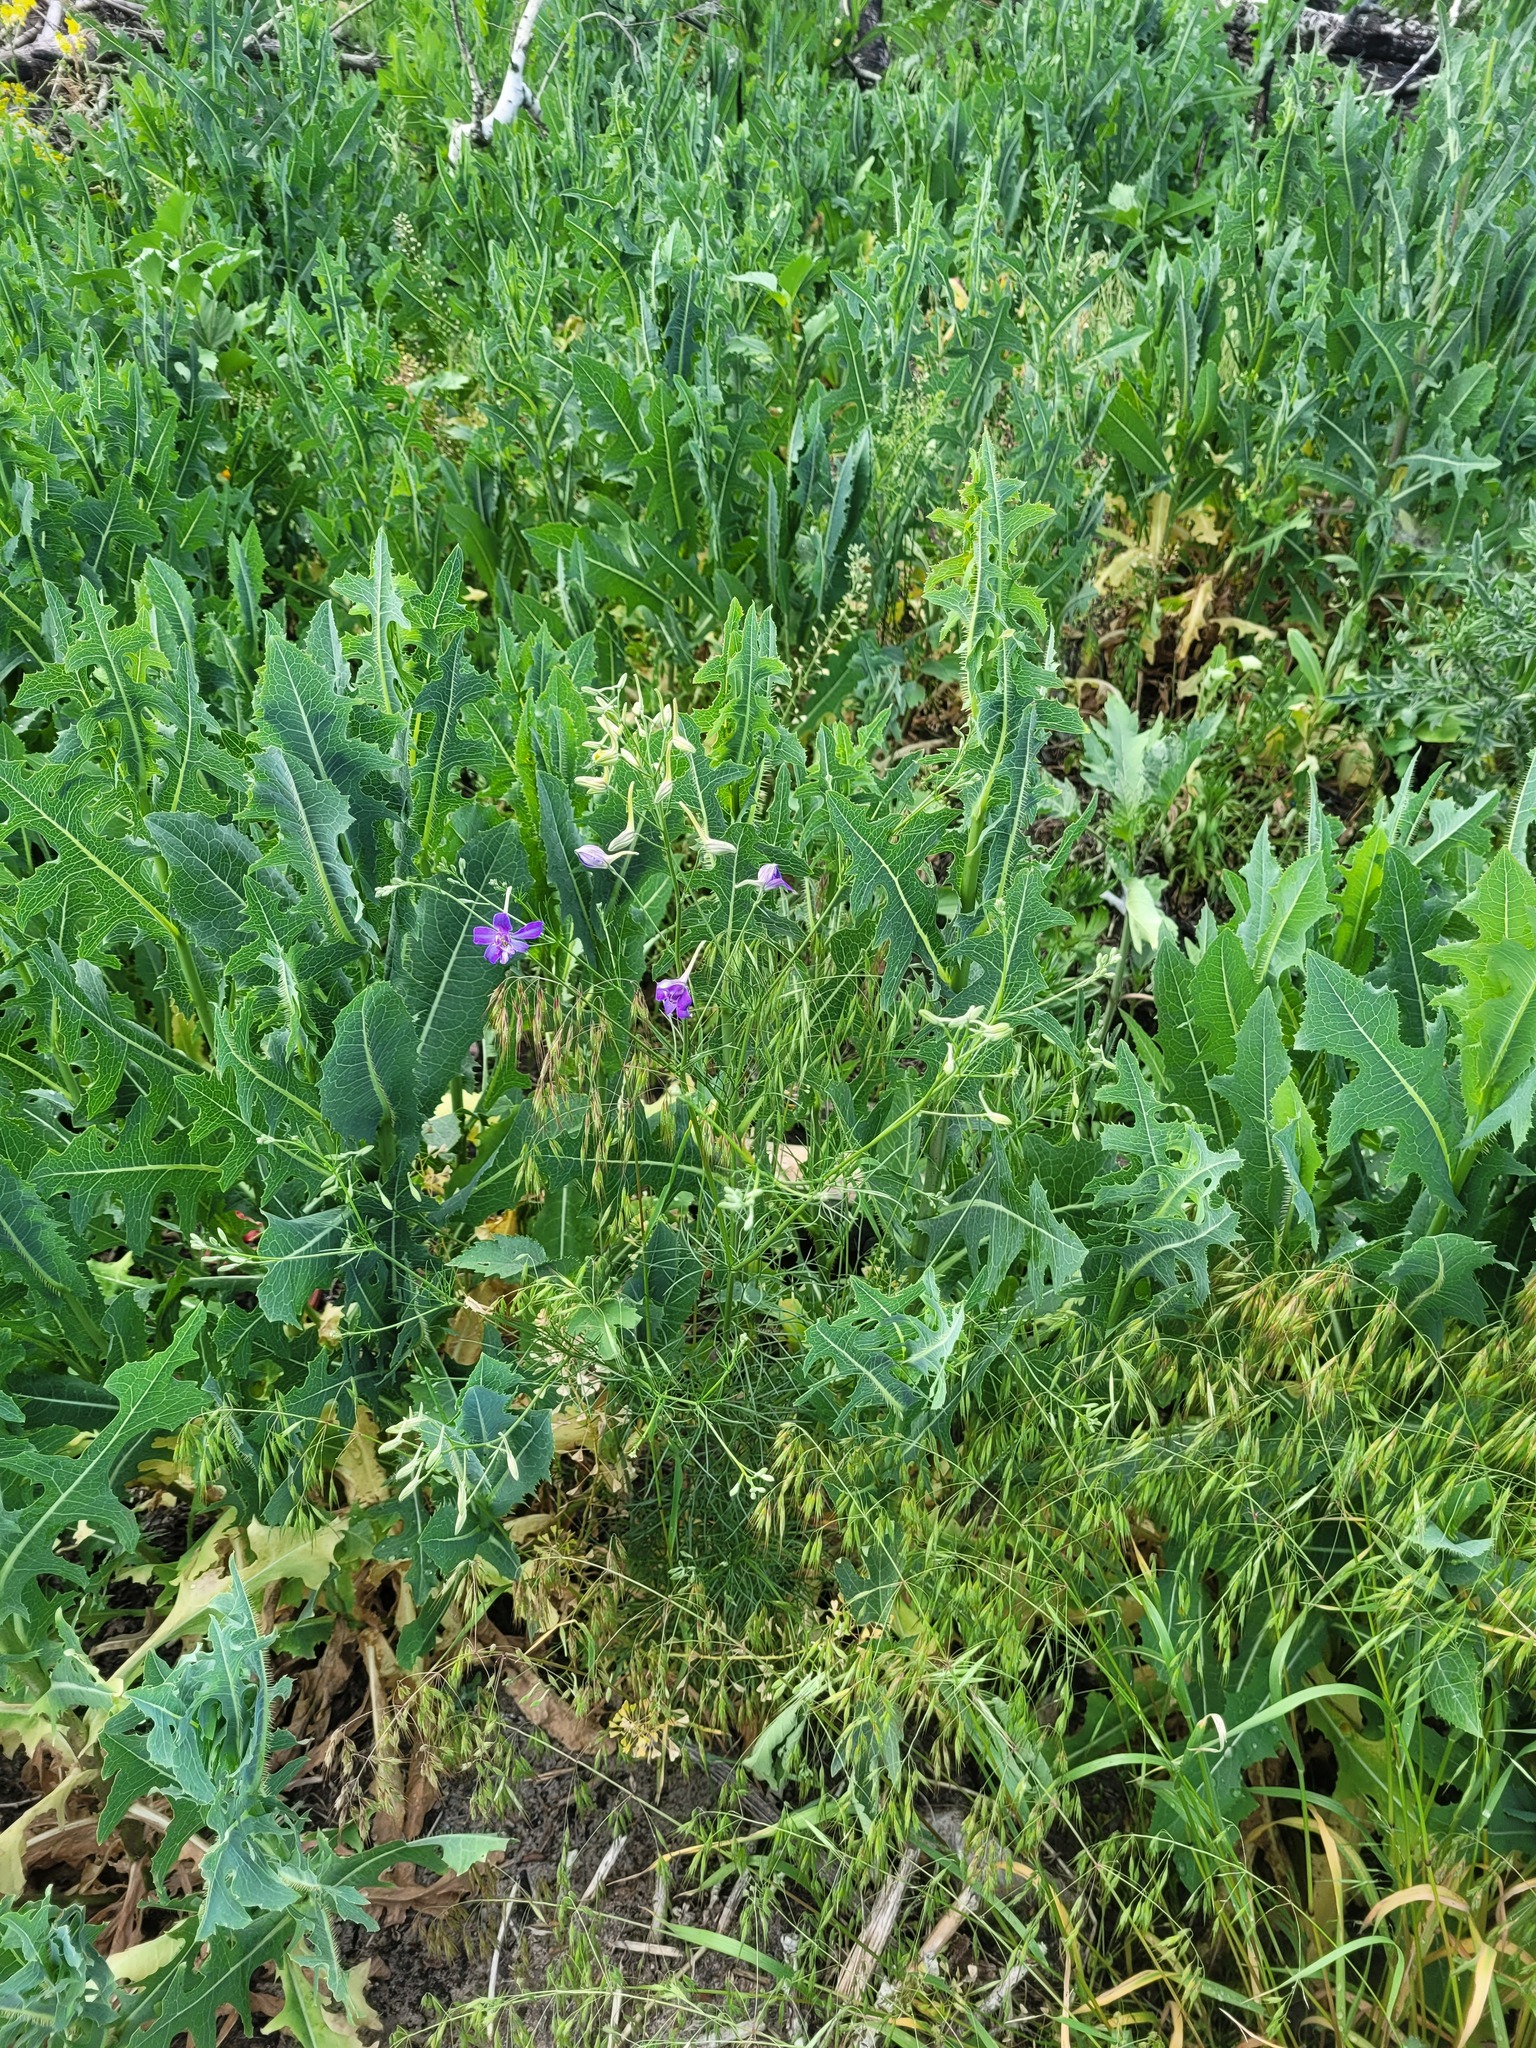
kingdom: Plantae
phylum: Tracheophyta
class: Magnoliopsida
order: Ranunculales
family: Ranunculaceae
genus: Delphinium
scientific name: Delphinium consolida
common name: Branching larkspur
